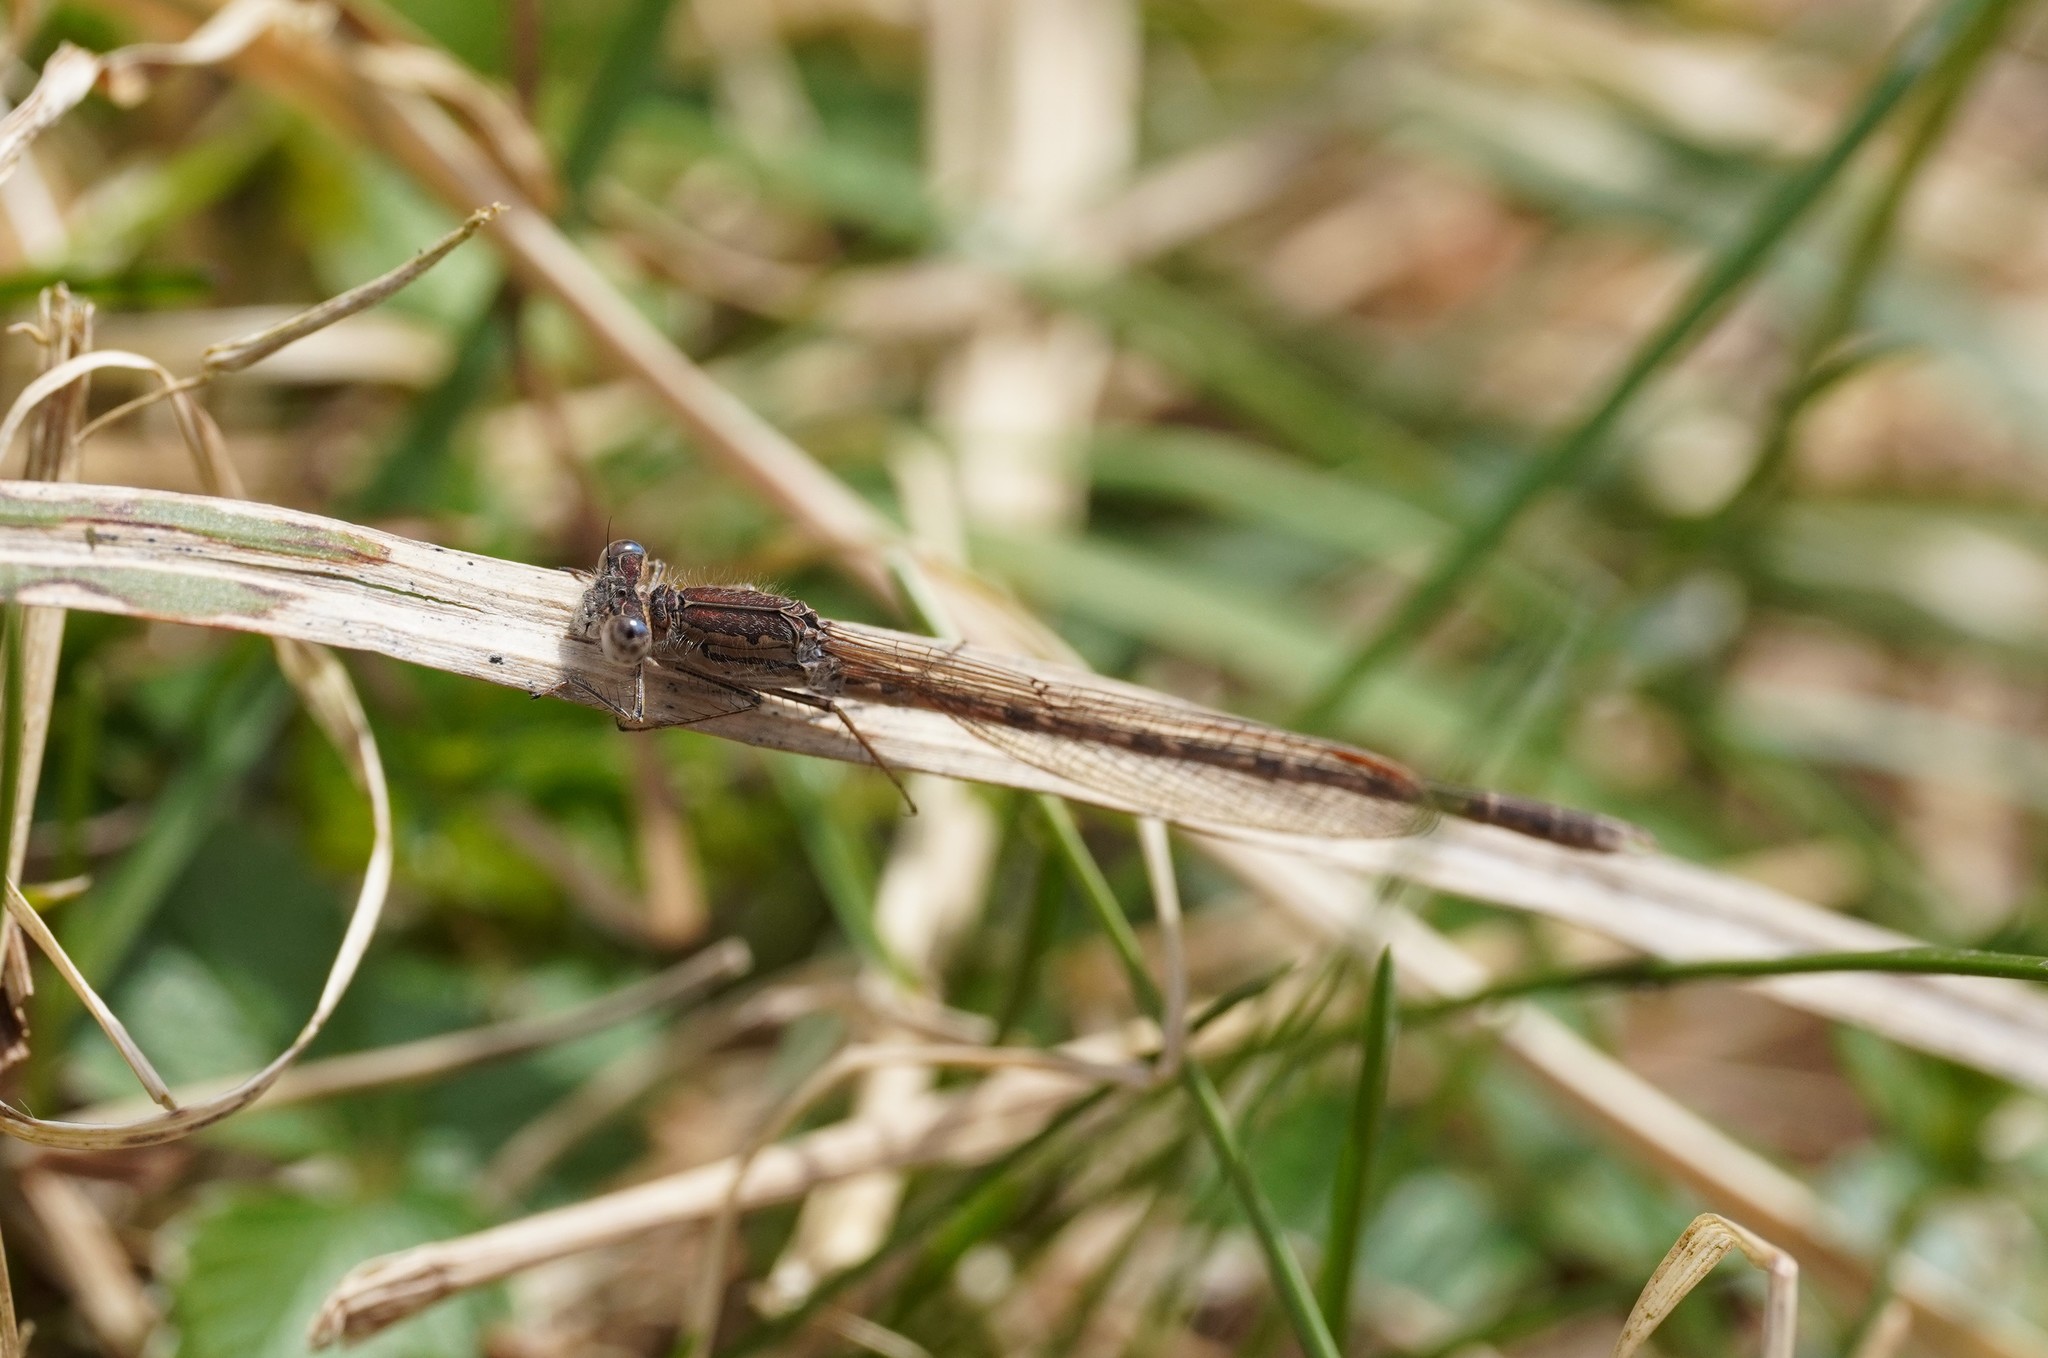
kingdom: Animalia
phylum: Arthropoda
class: Insecta
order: Odonata
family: Lestidae
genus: Sympecma
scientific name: Sympecma paedisca
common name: Siberian winter damsel
